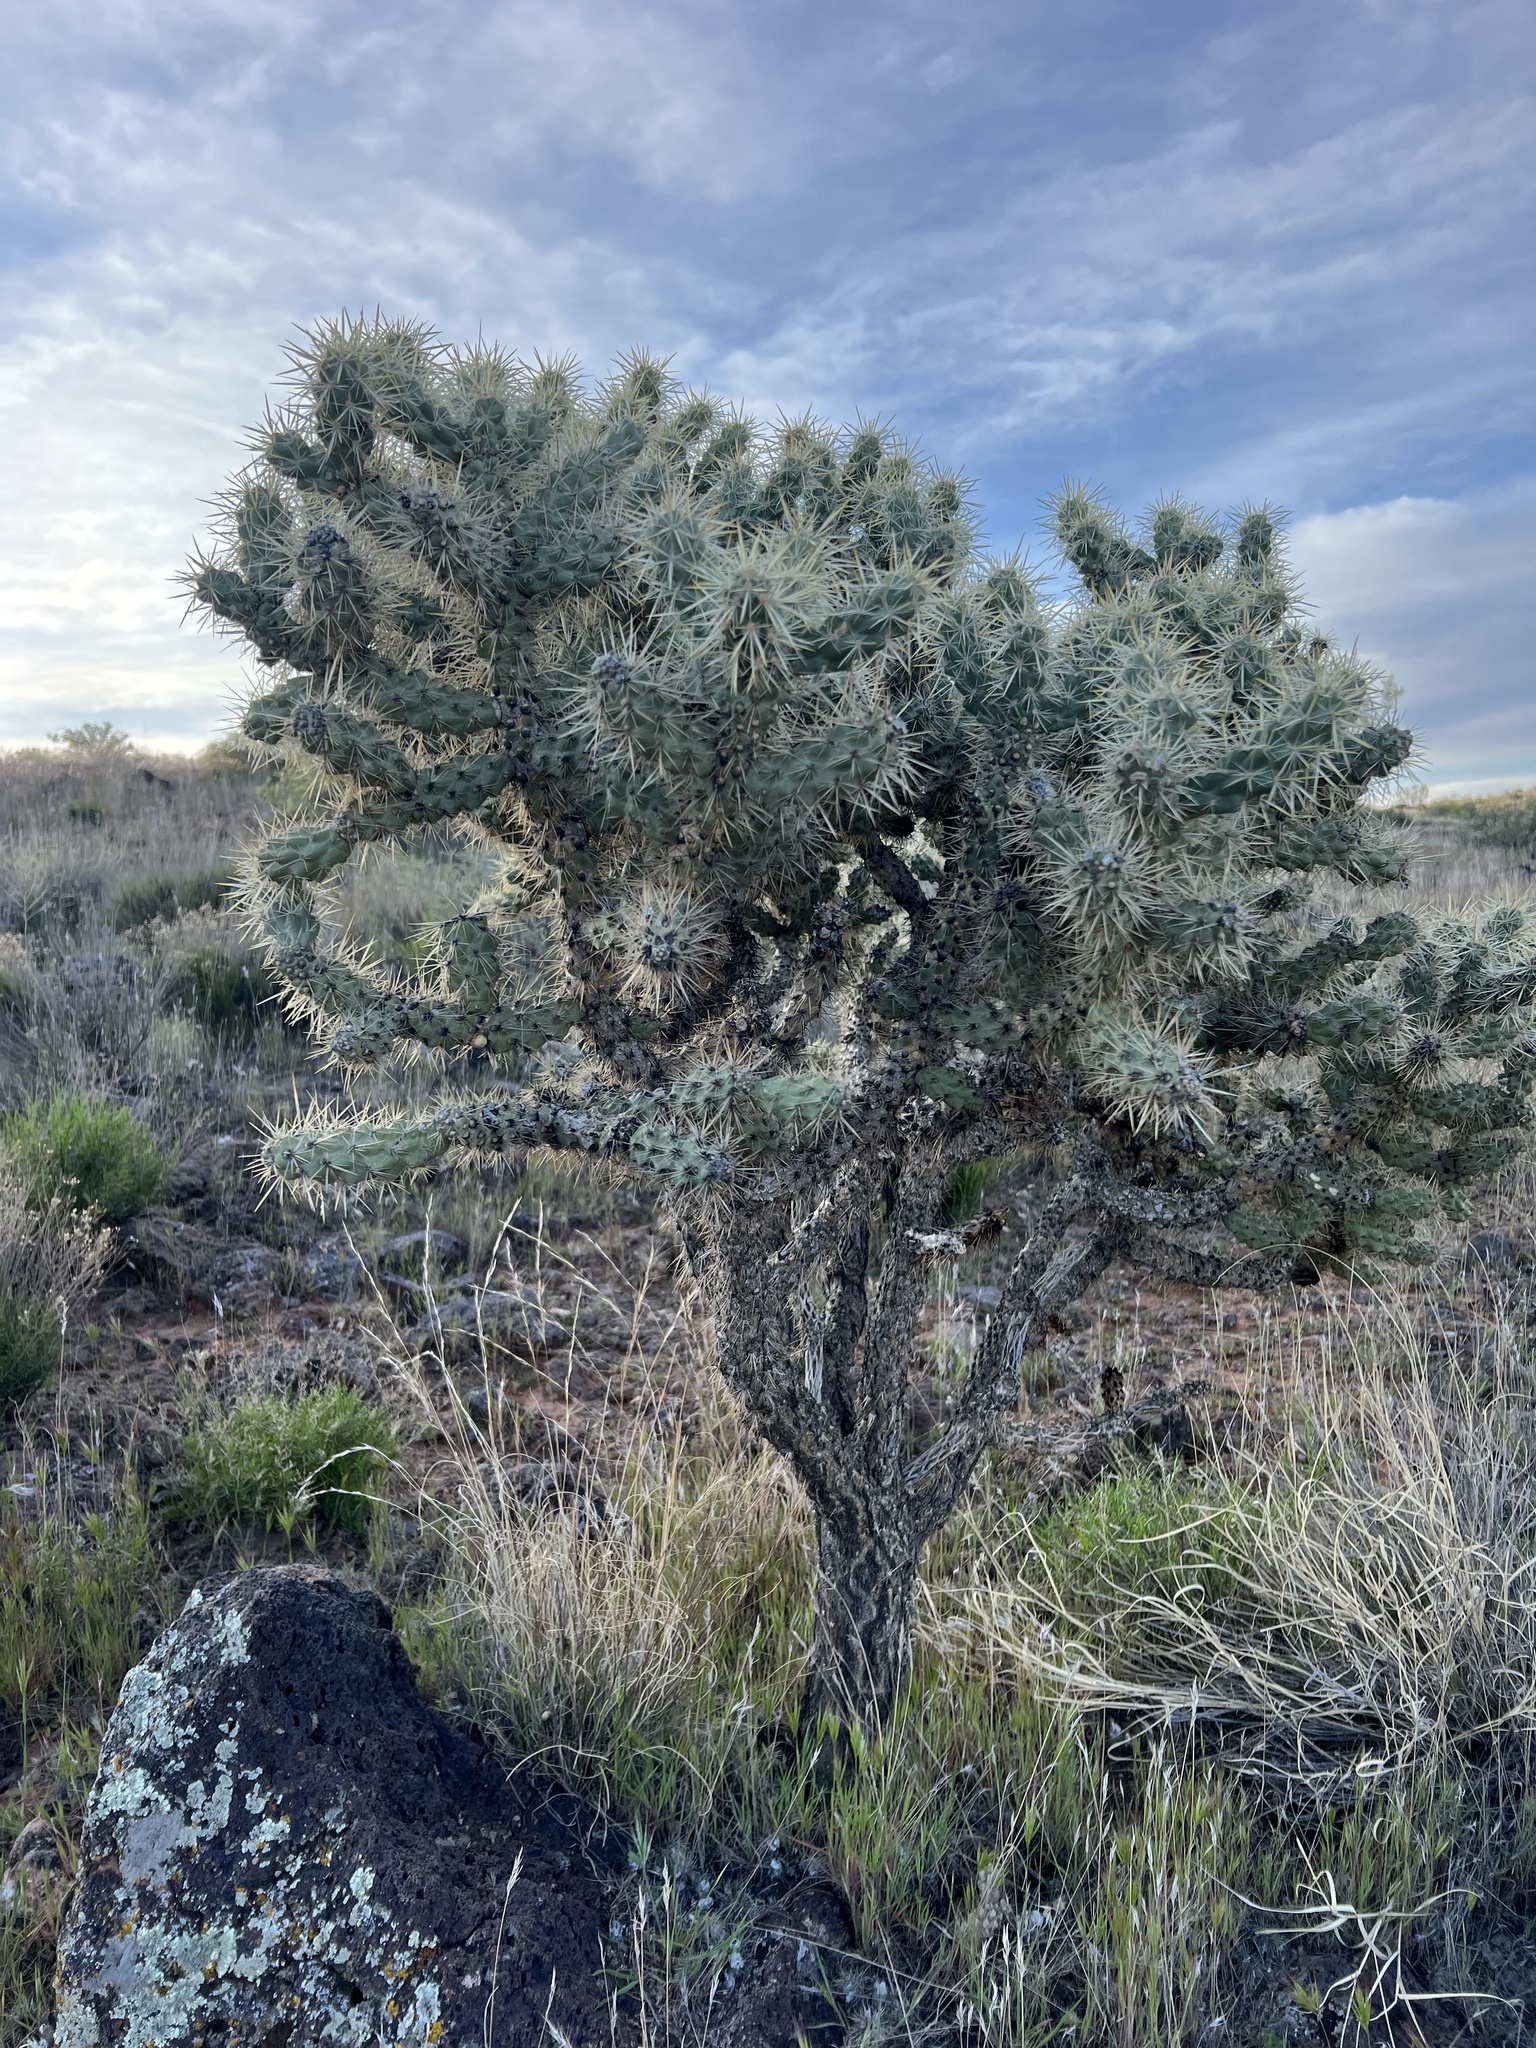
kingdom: Plantae
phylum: Tracheophyta
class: Magnoliopsida
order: Caryophyllales
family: Cactaceae
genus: Cylindropuntia
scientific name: Cylindropuntia echinocarpa
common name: Ground cholla
